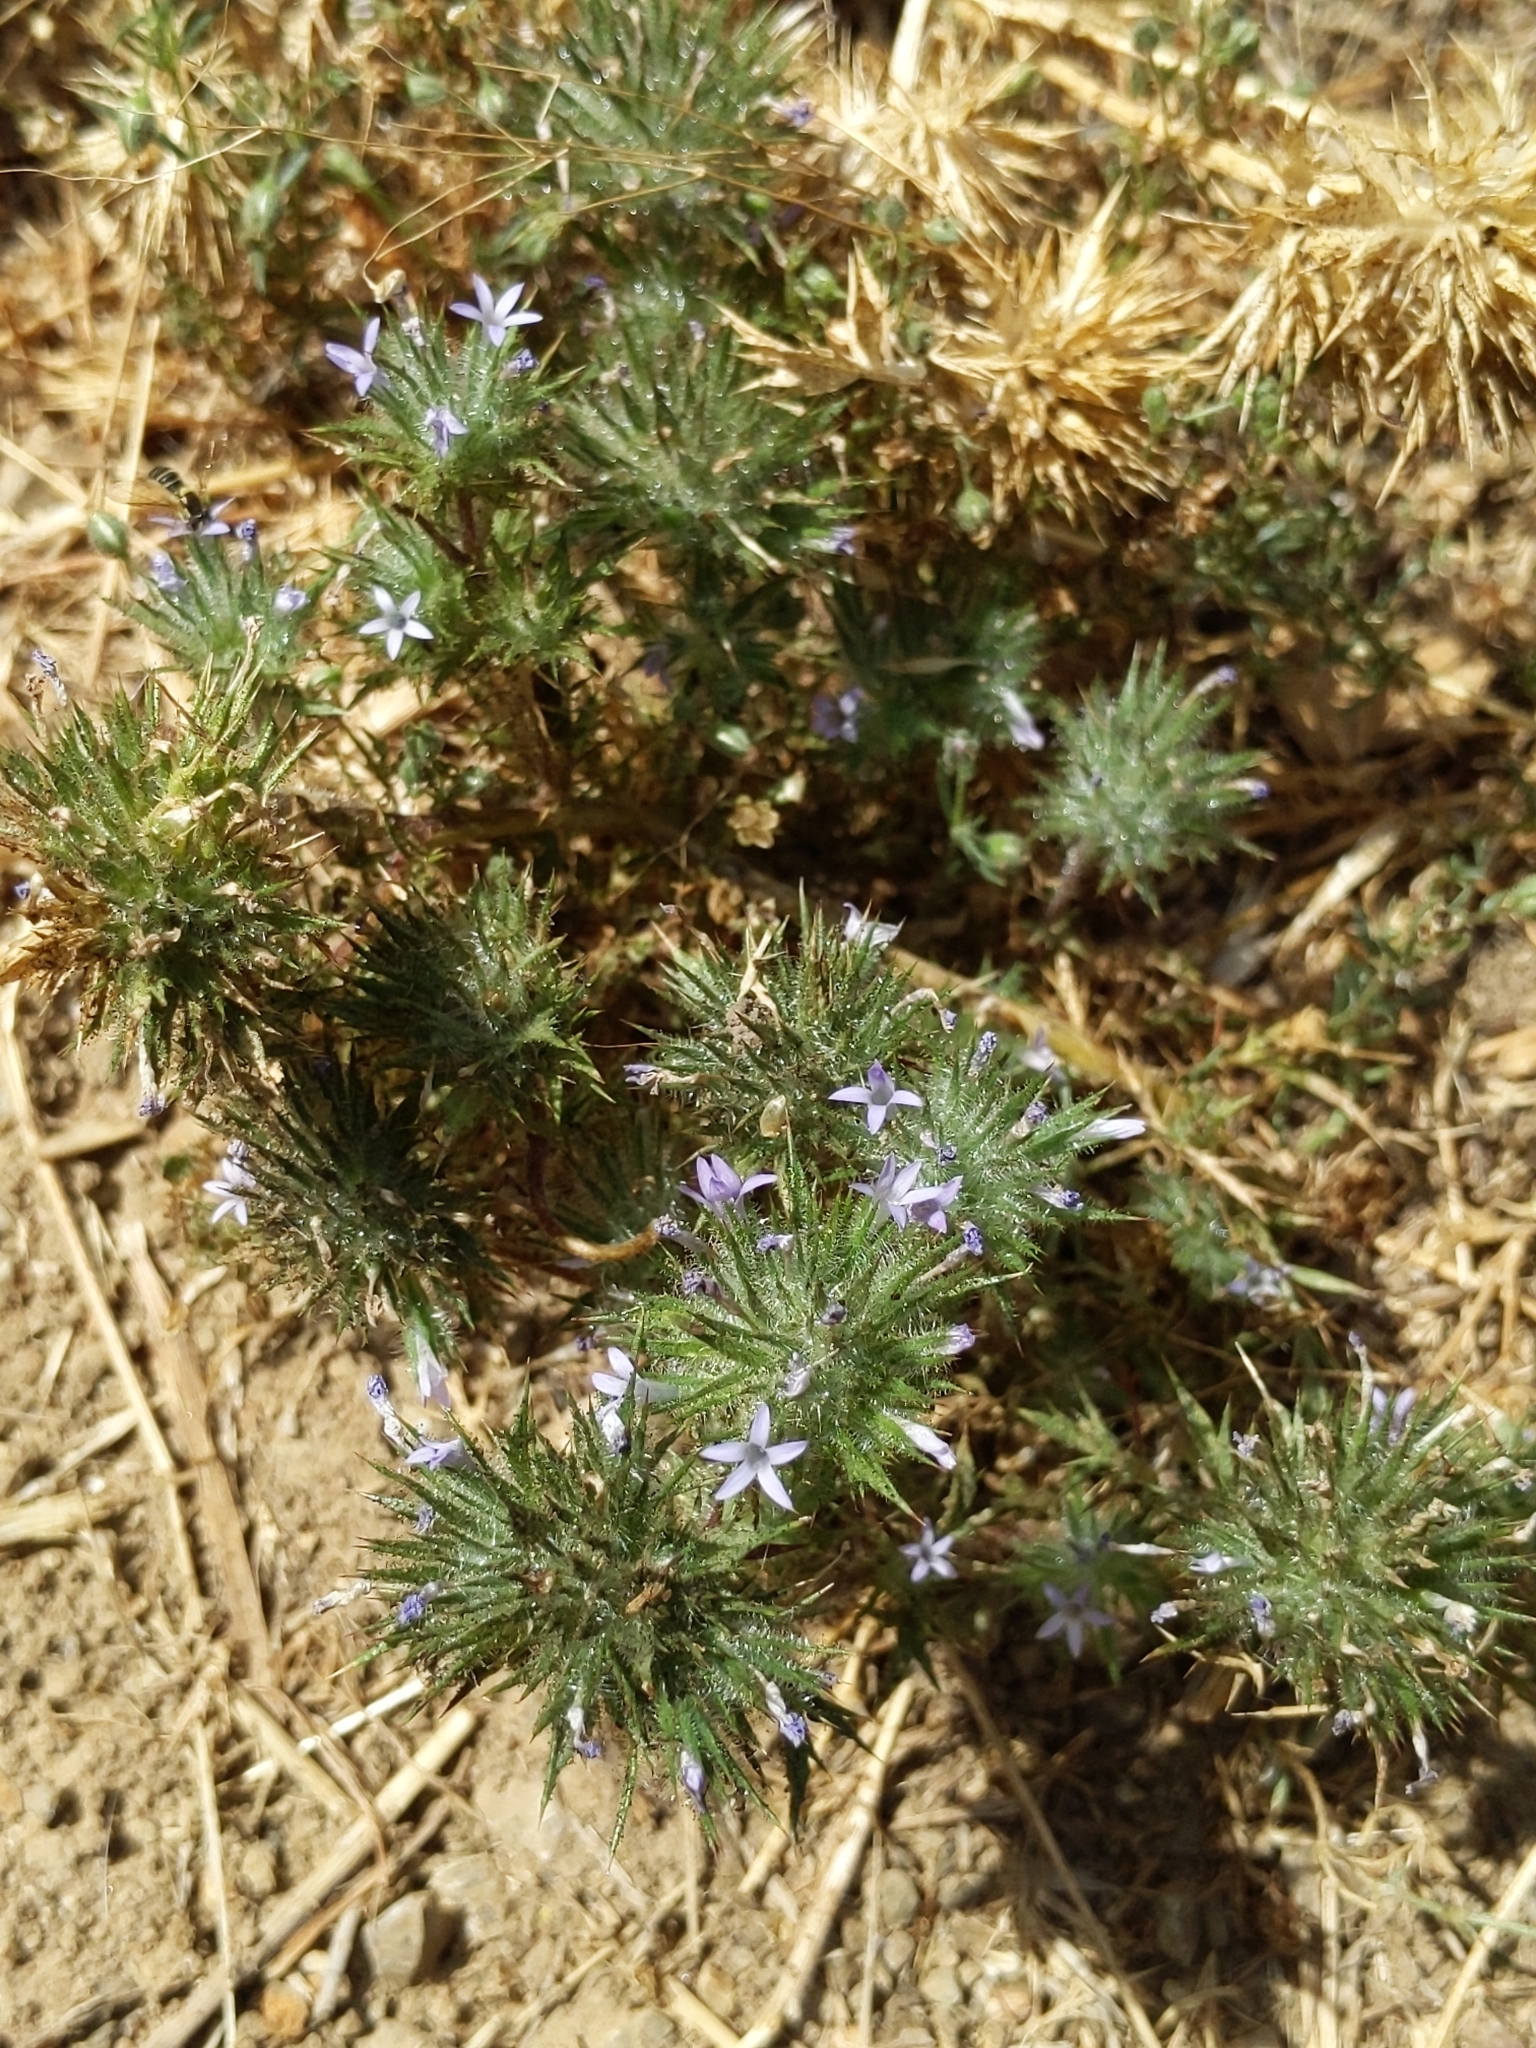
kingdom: Plantae
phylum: Tracheophyta
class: Magnoliopsida
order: Ericales
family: Polemoniaceae
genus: Navarretia
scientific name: Navarretia squarrosa
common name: Skunkweed
